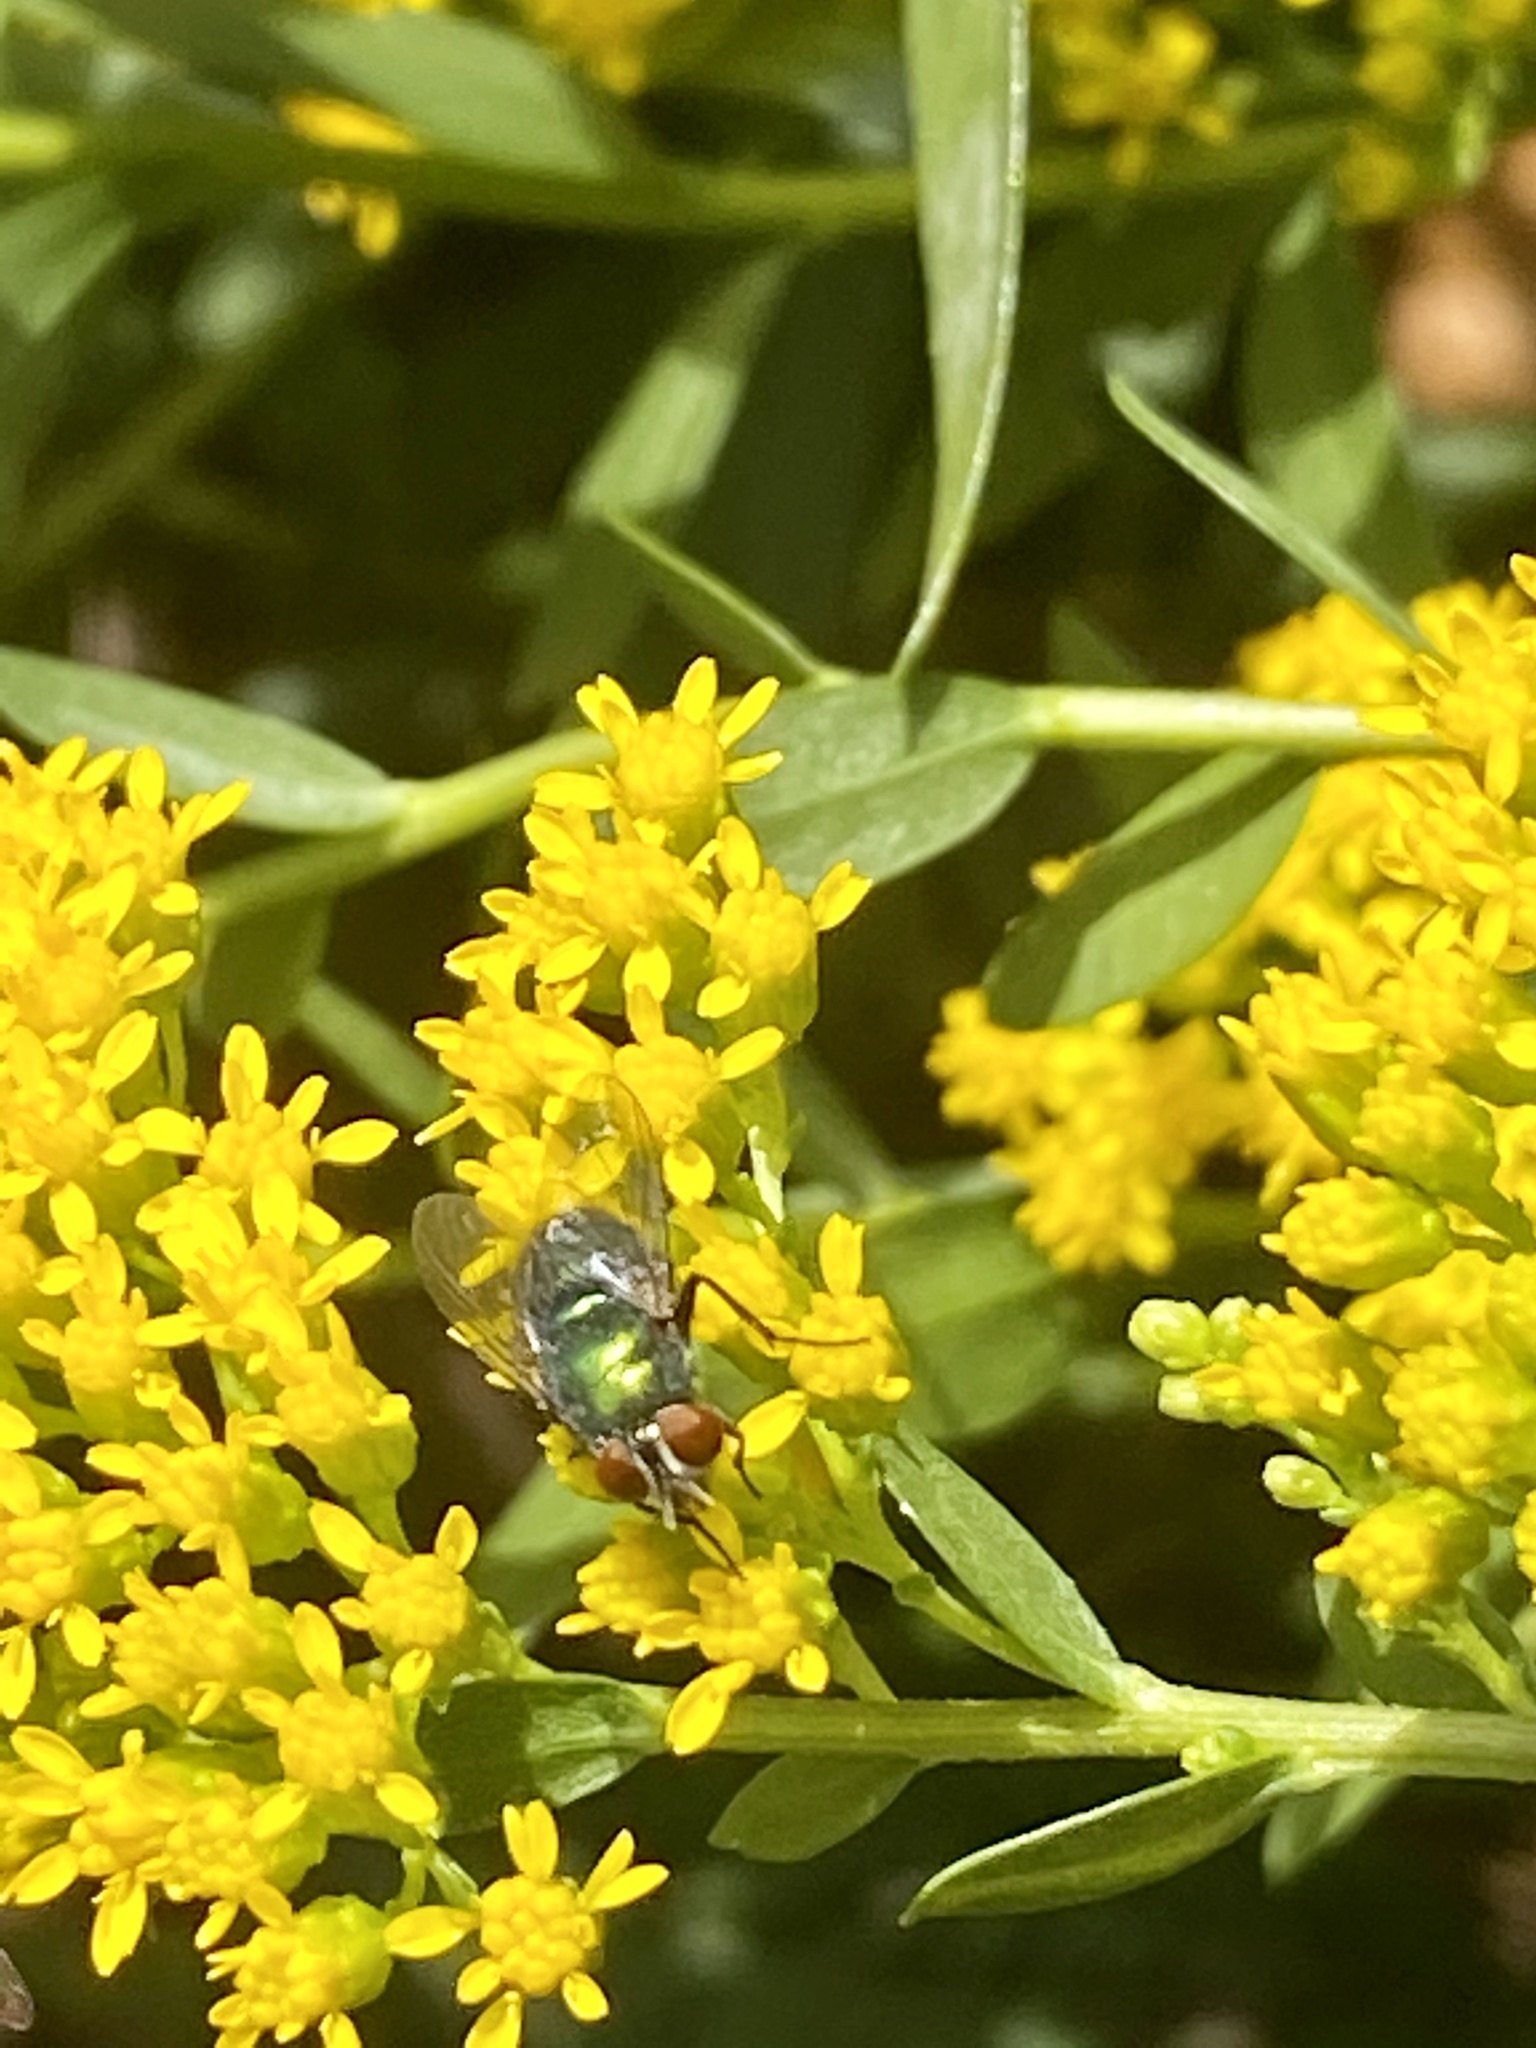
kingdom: Animalia
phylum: Arthropoda
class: Insecta
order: Diptera
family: Calliphoridae
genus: Lucilia
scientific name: Lucilia sericata
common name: Blow fly
